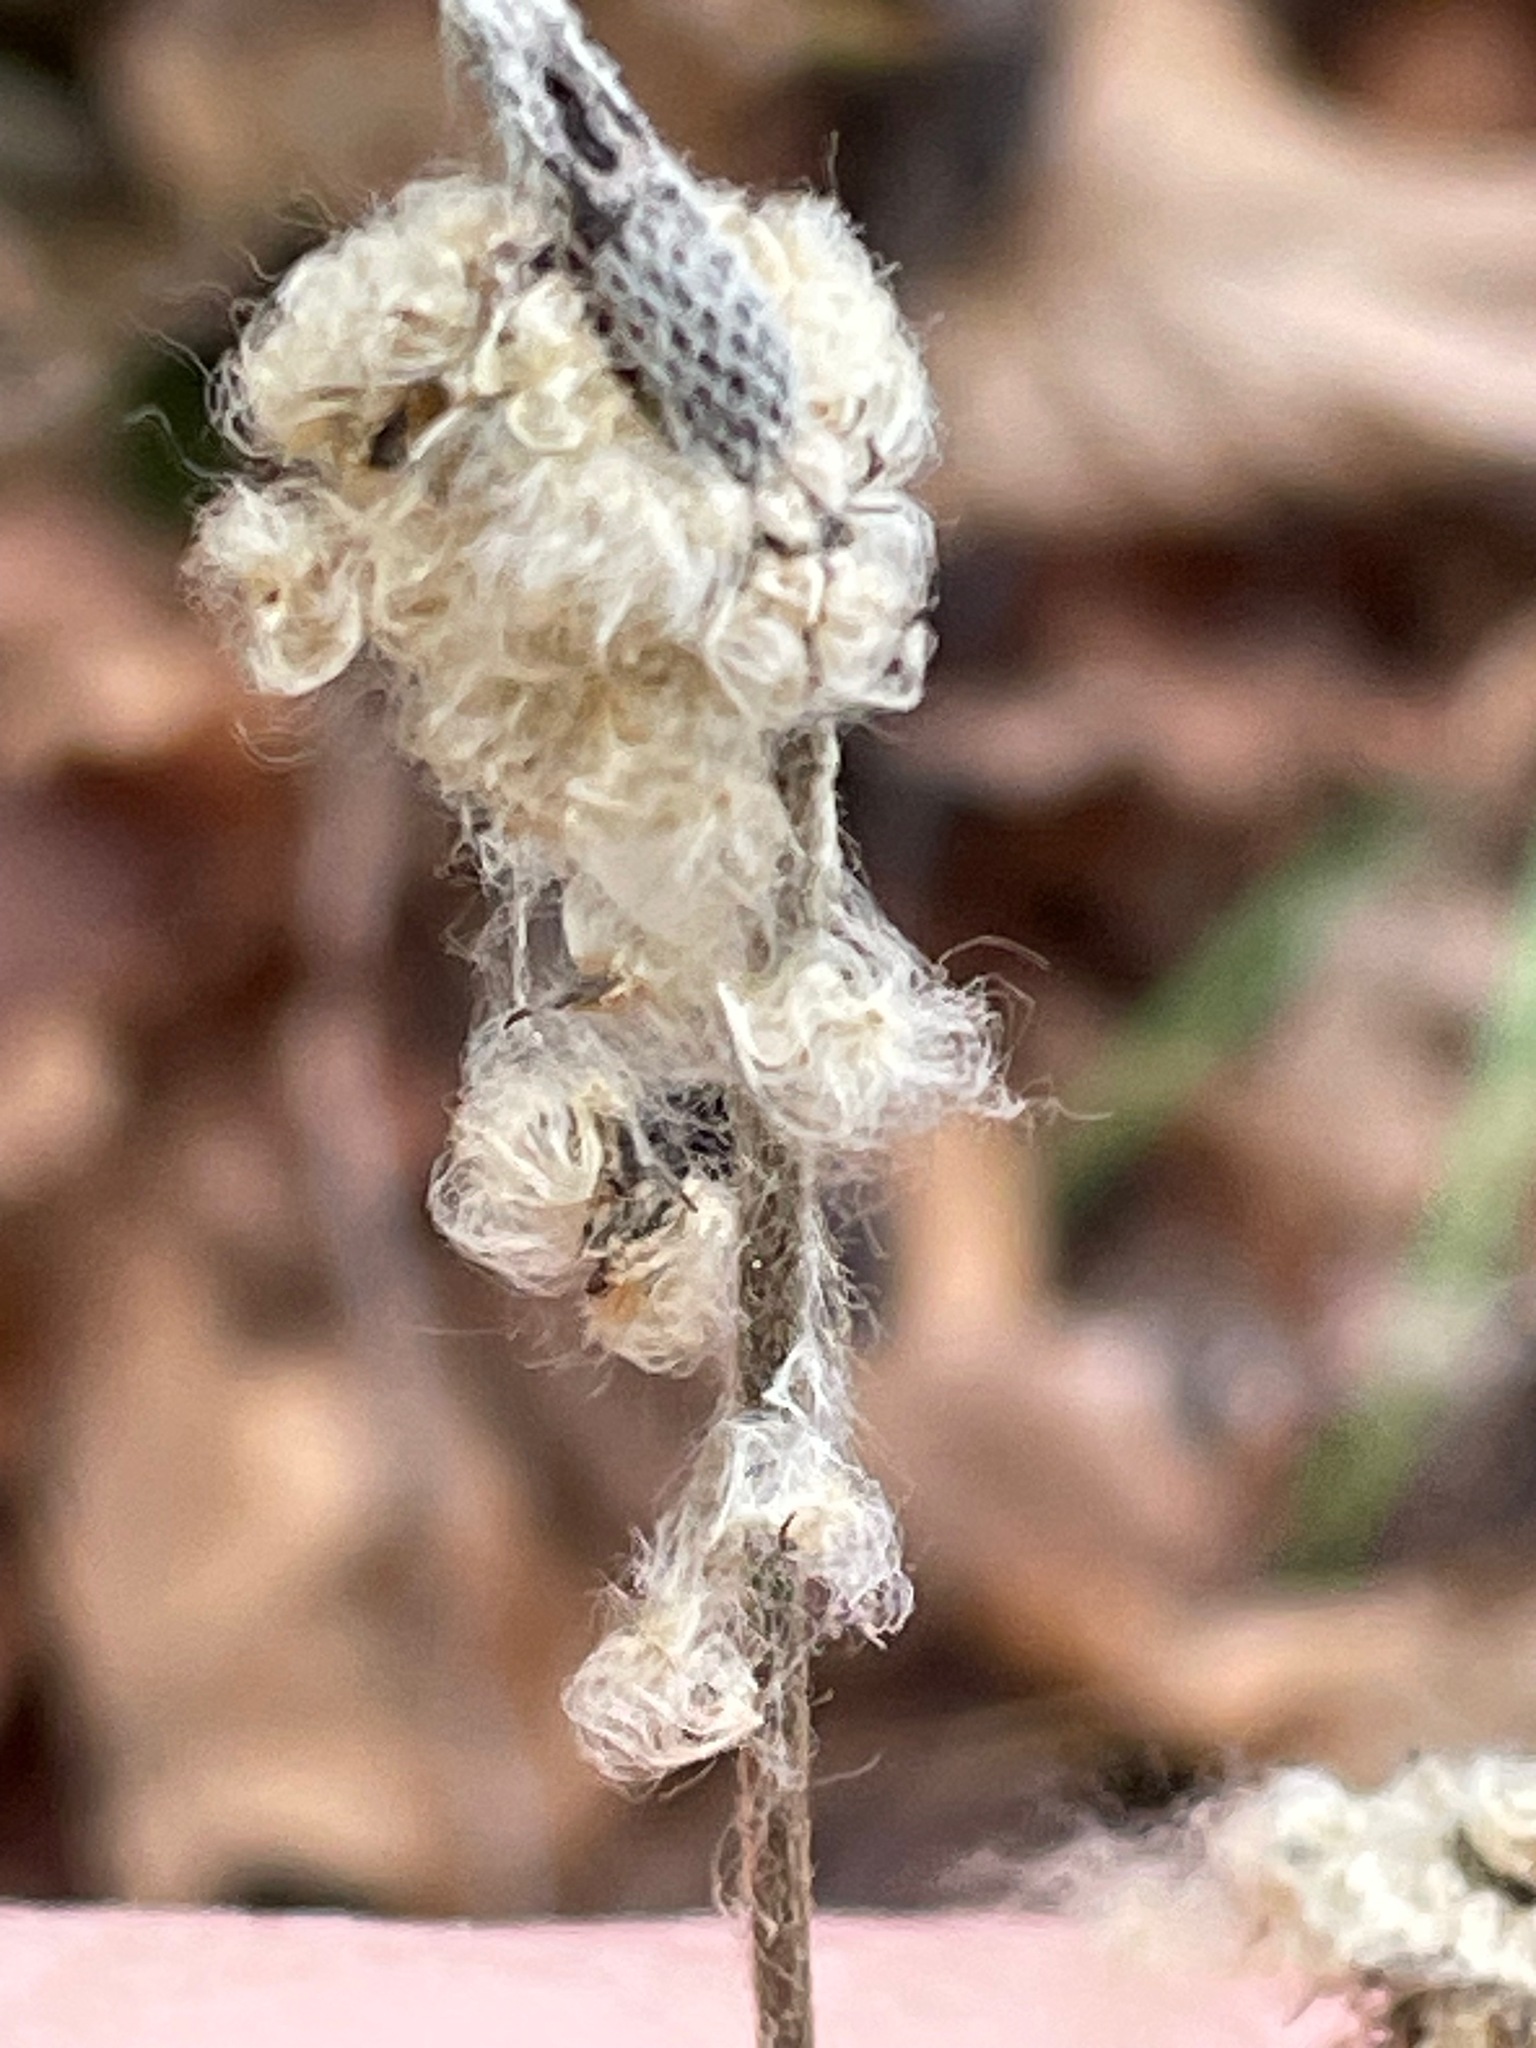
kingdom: Plantae
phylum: Tracheophyta
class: Magnoliopsida
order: Ranunculales
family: Ranunculaceae
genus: Anemone
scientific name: Anemone virginiana
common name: Tall anemone
